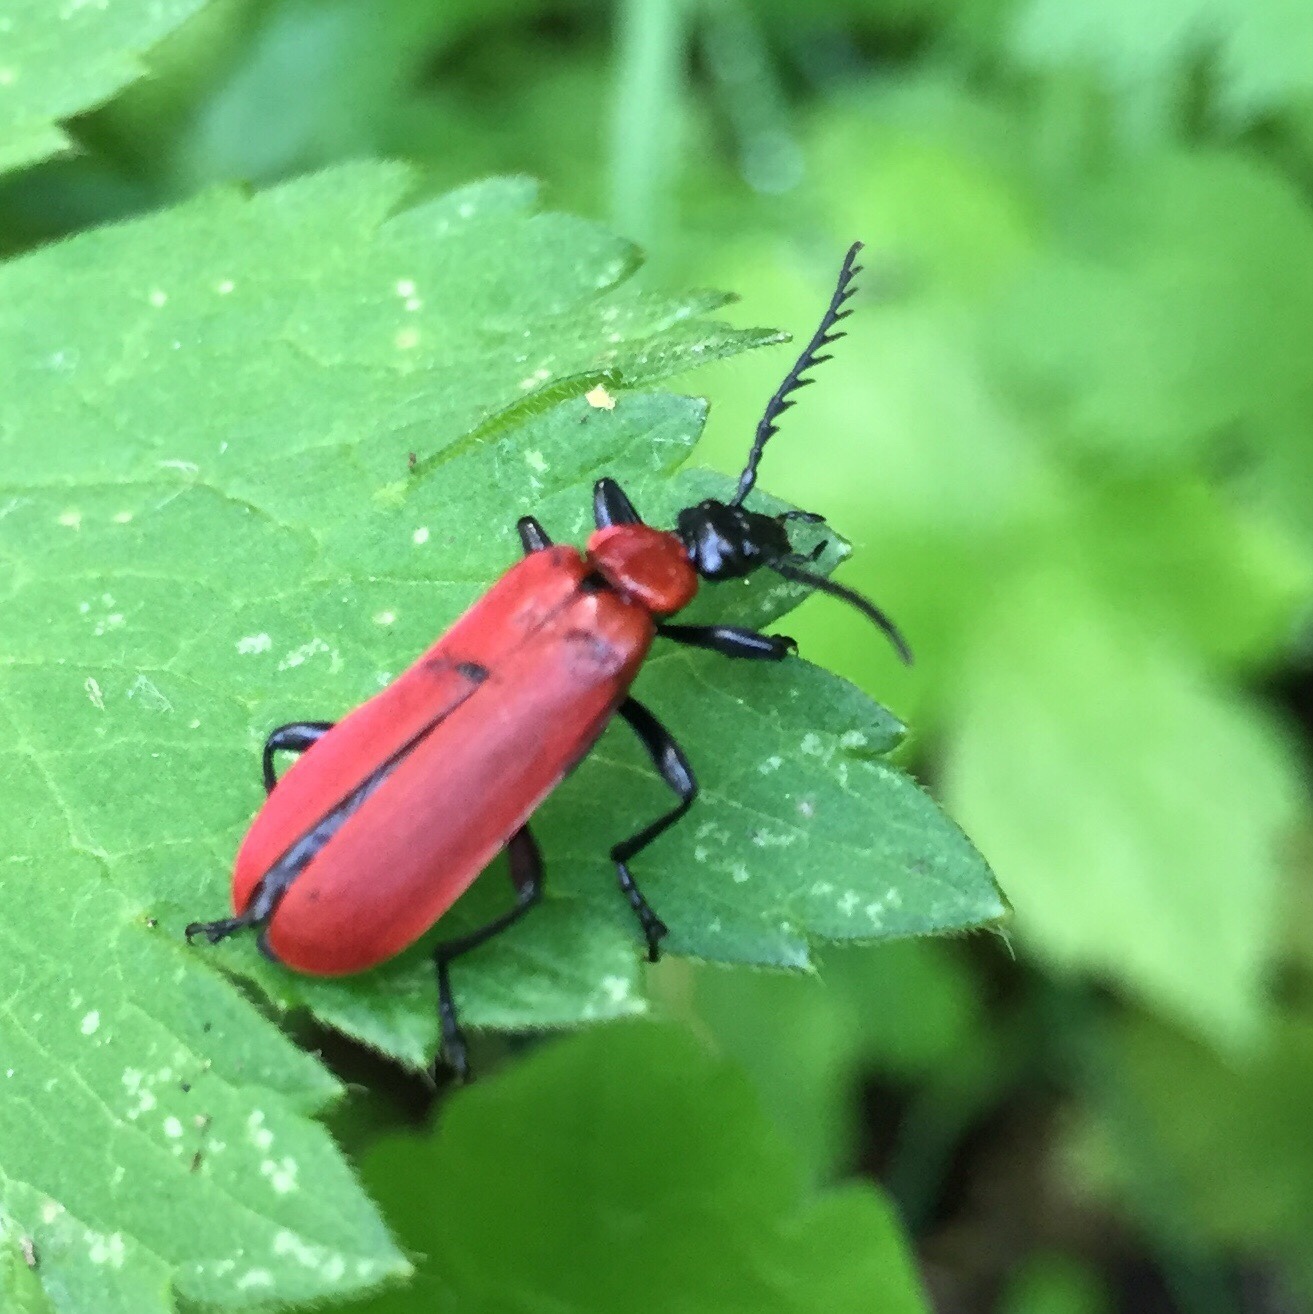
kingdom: Animalia
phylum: Arthropoda
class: Insecta
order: Coleoptera
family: Pyrochroidae
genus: Pyrochroa
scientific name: Pyrochroa coccinea
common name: Black-headed cardinal beetle
